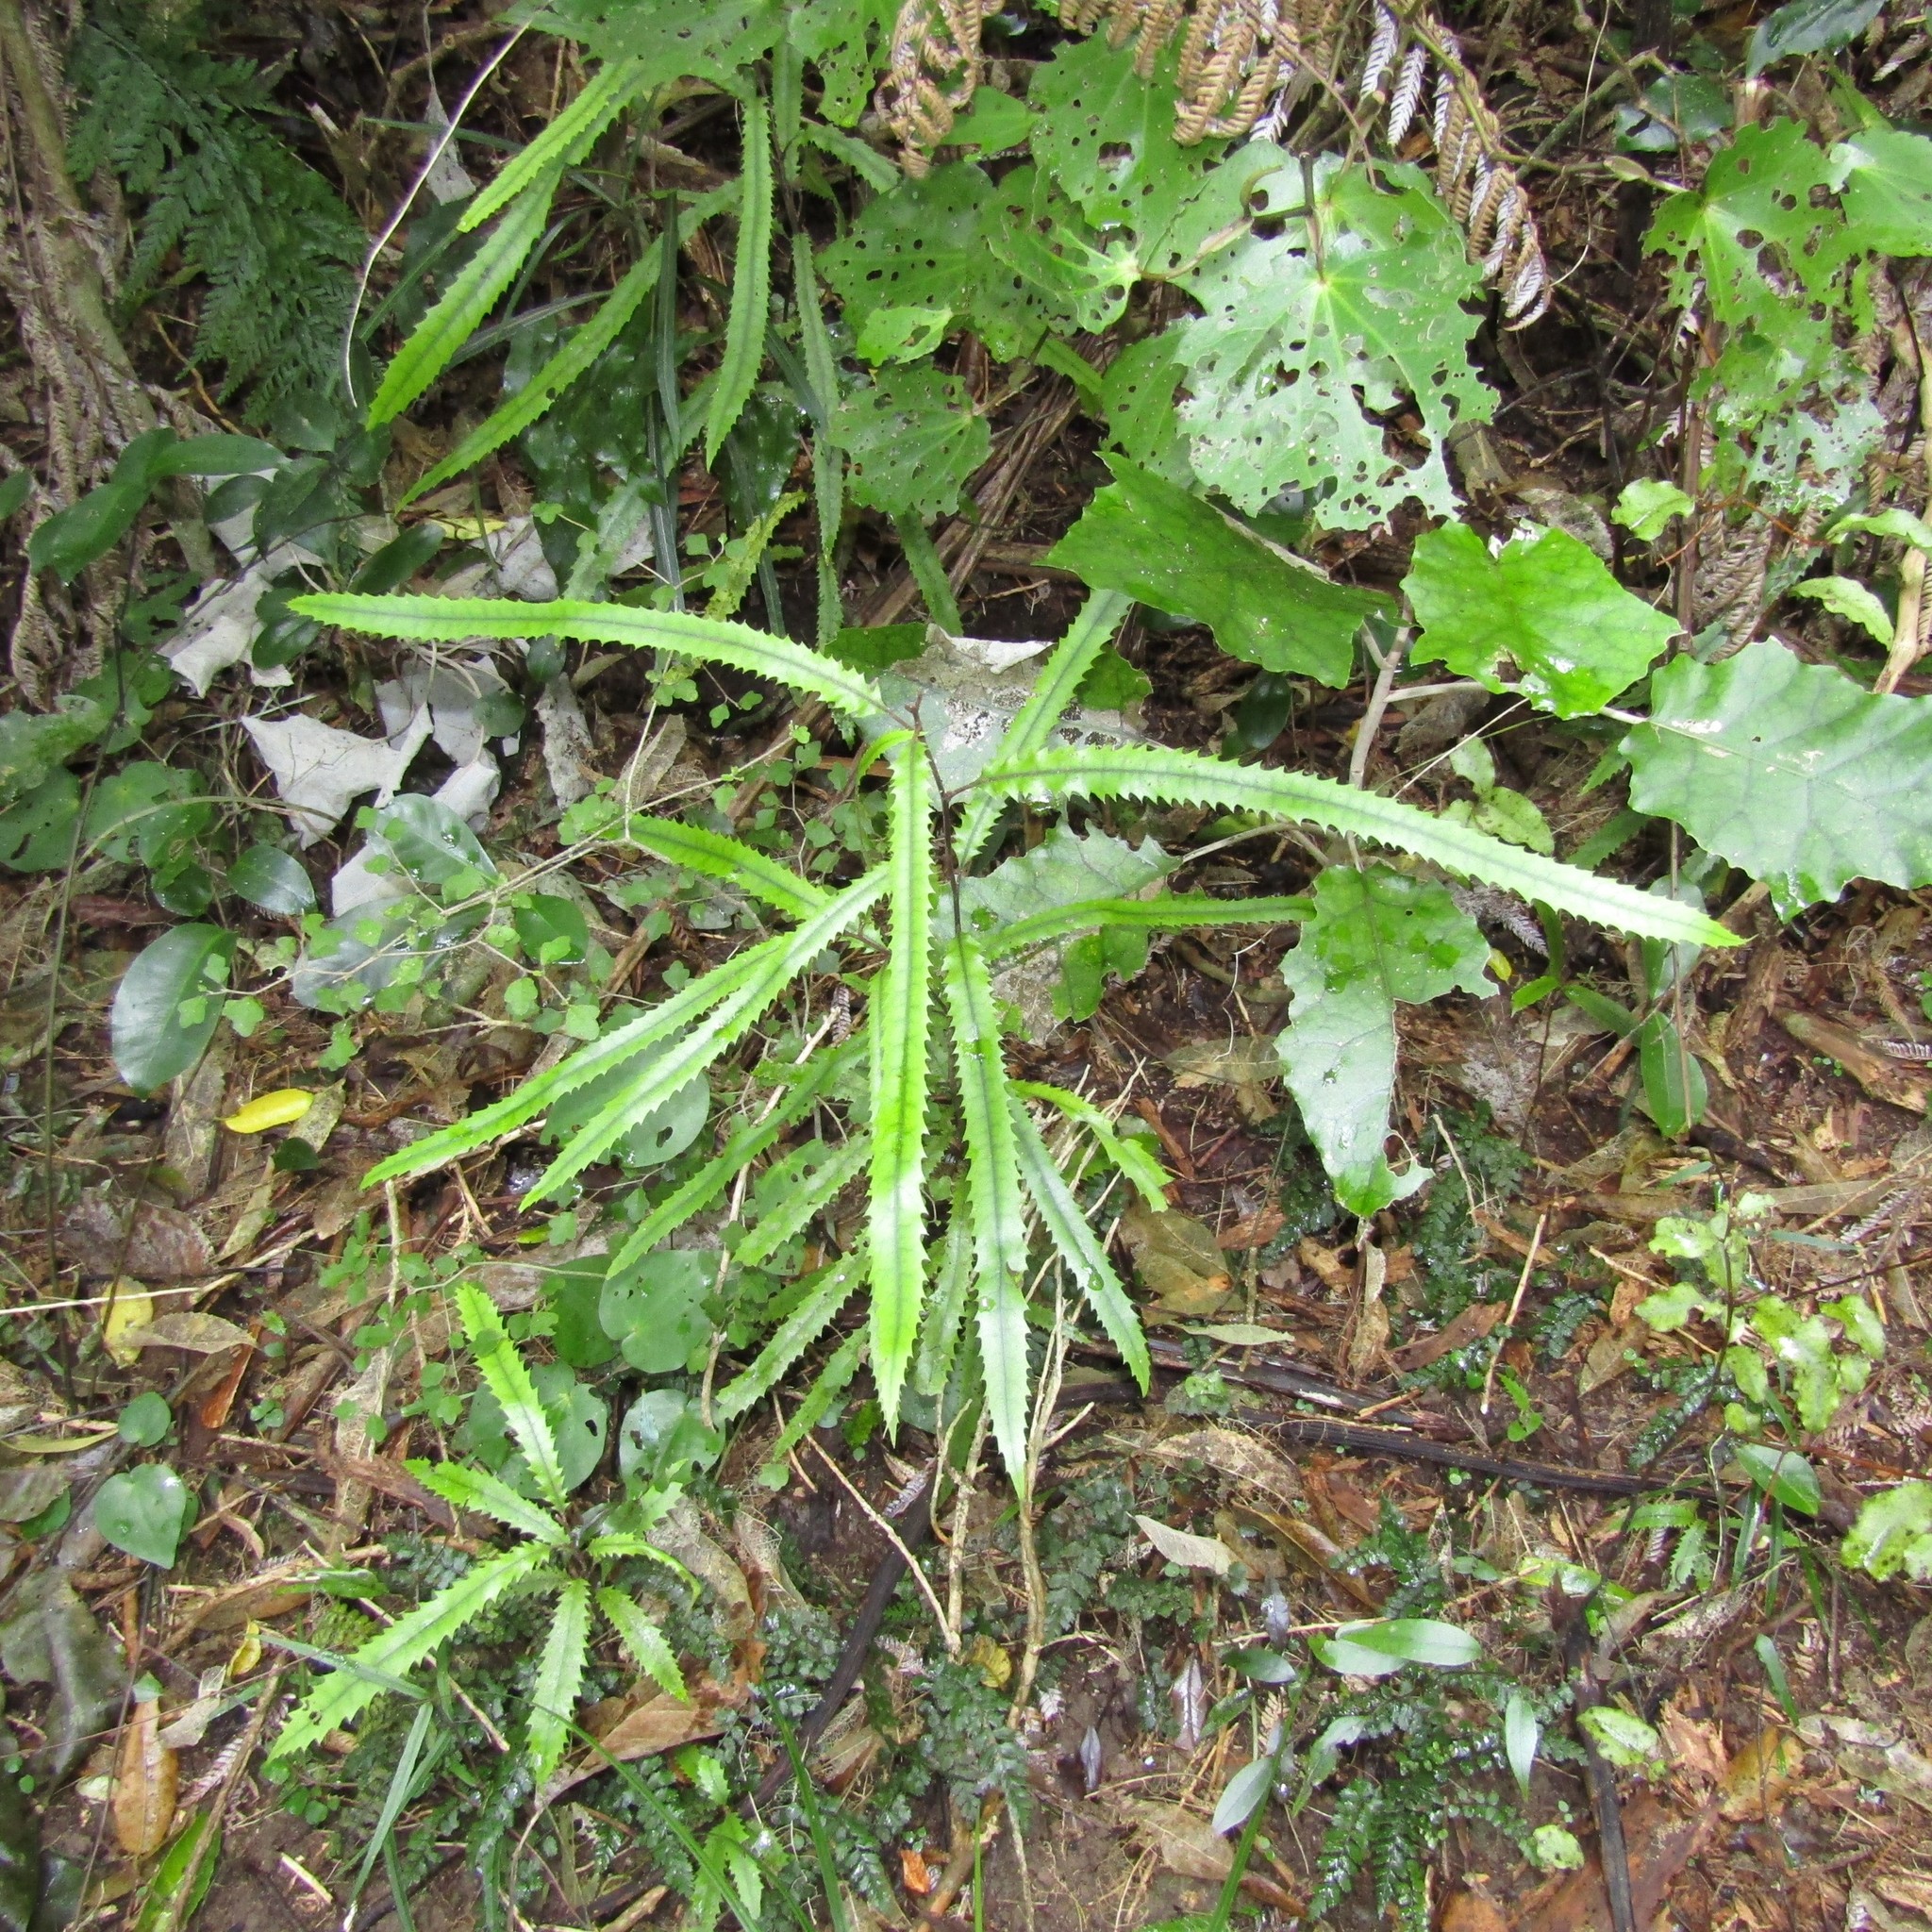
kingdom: Plantae
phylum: Tracheophyta
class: Magnoliopsida
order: Proteales
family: Proteaceae
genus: Knightia
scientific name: Knightia excelsa
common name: New zealand-honeysuckle
